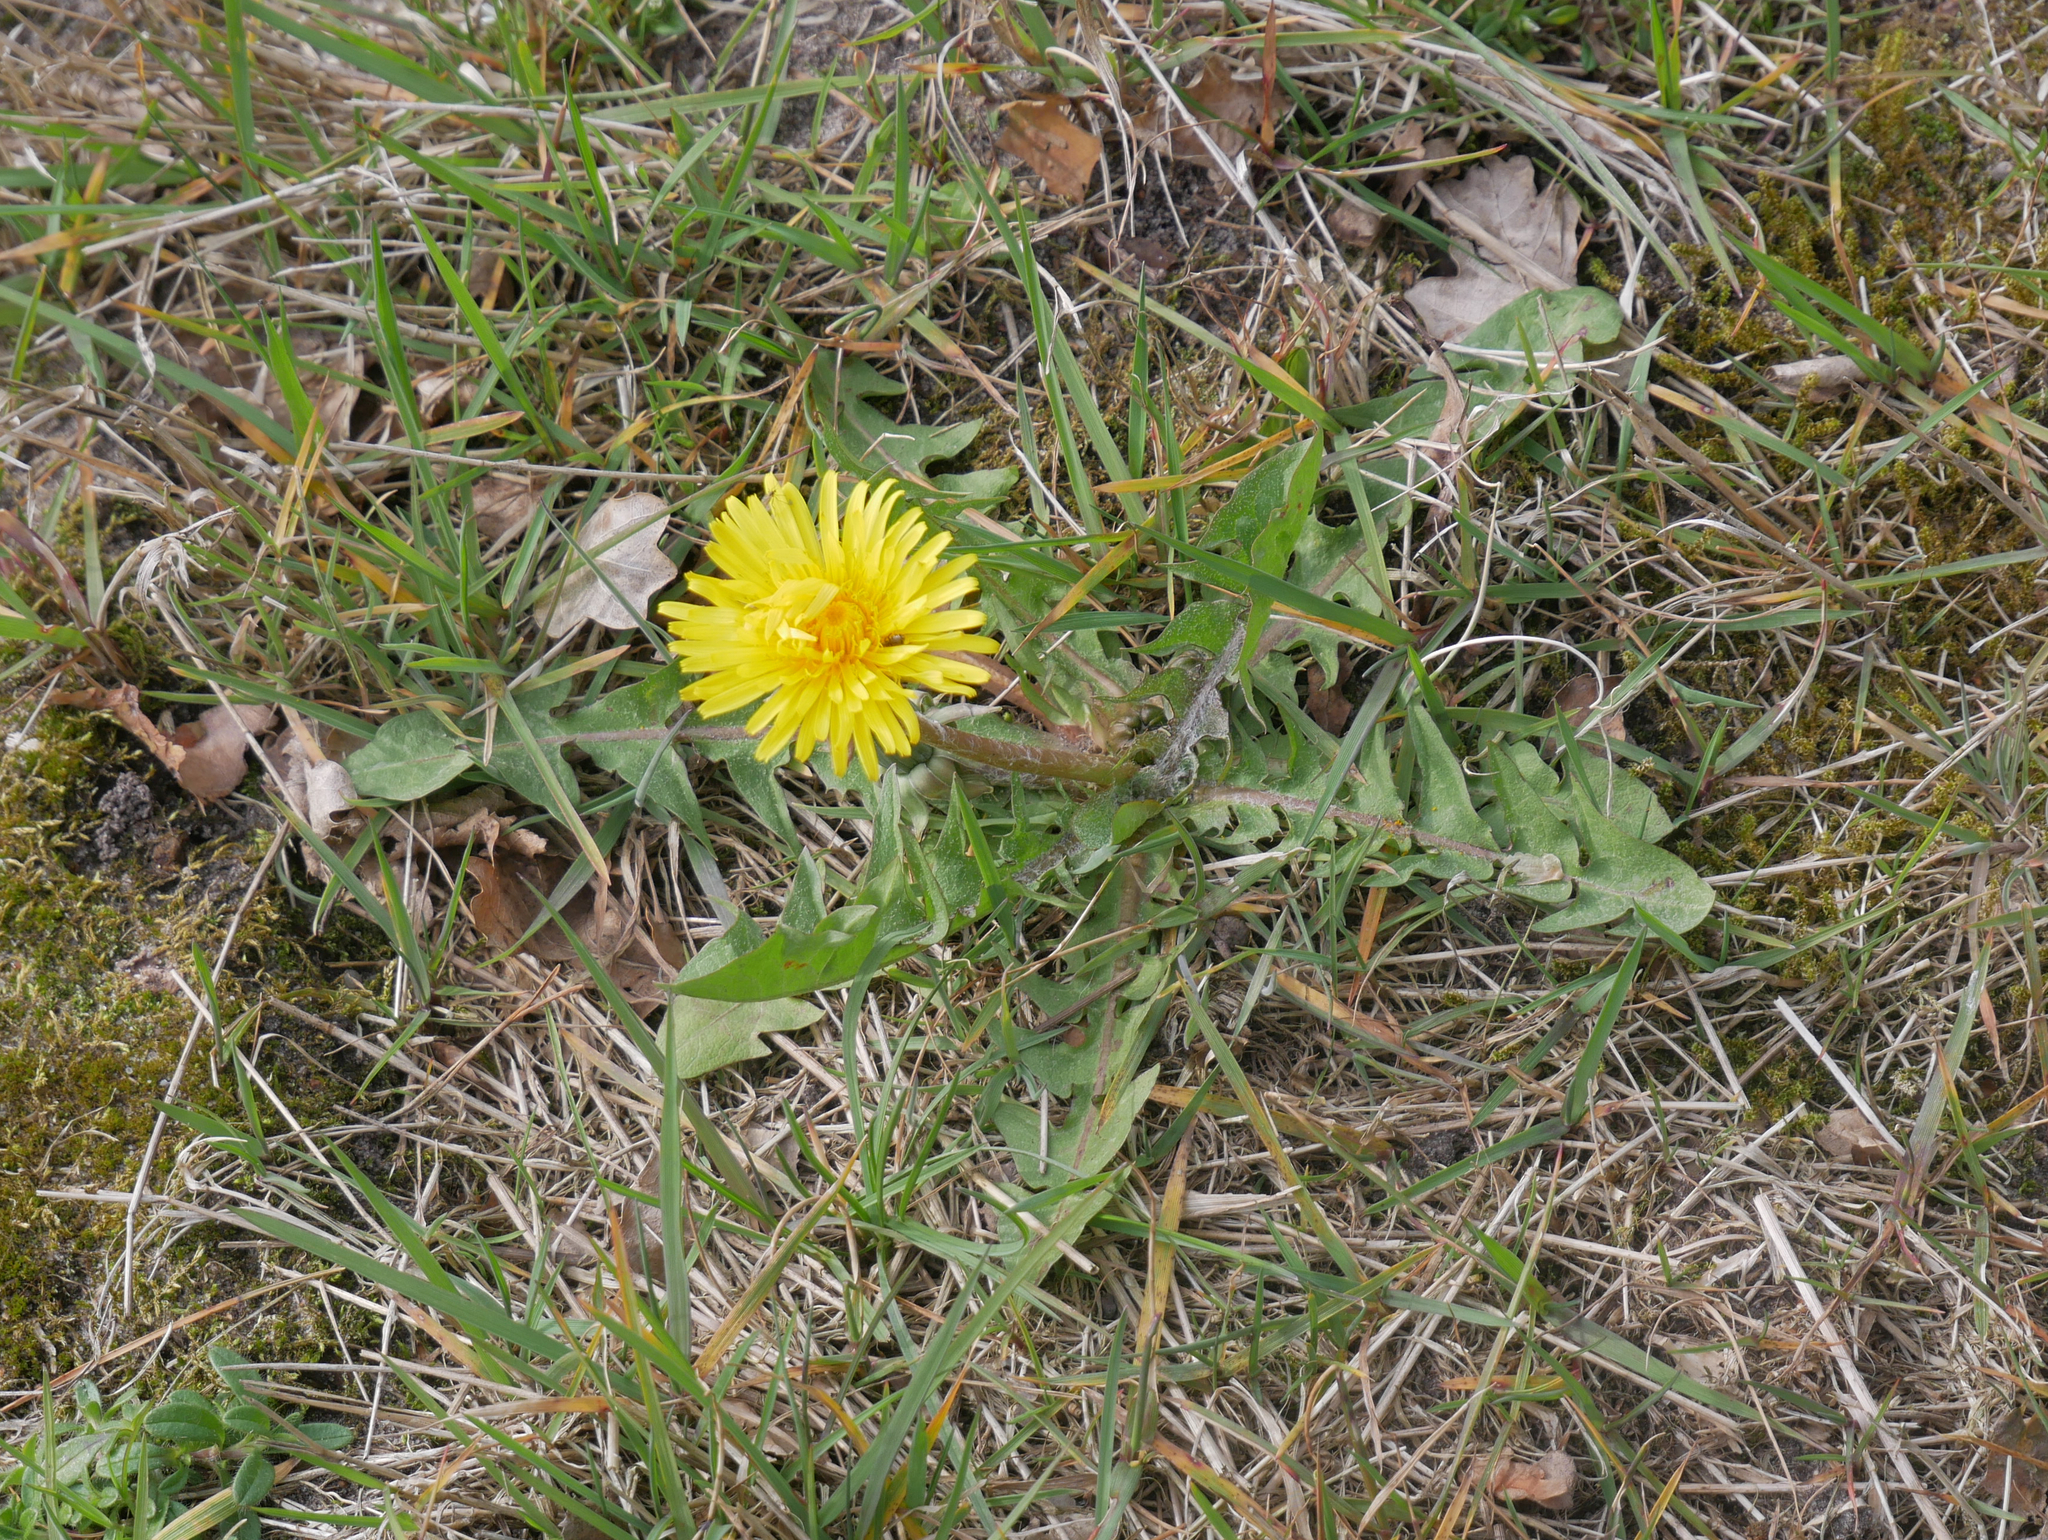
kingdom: Plantae
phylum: Tracheophyta
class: Magnoliopsida
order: Asterales
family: Asteraceae
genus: Taraxacum
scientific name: Taraxacum officinale
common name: Common dandelion
